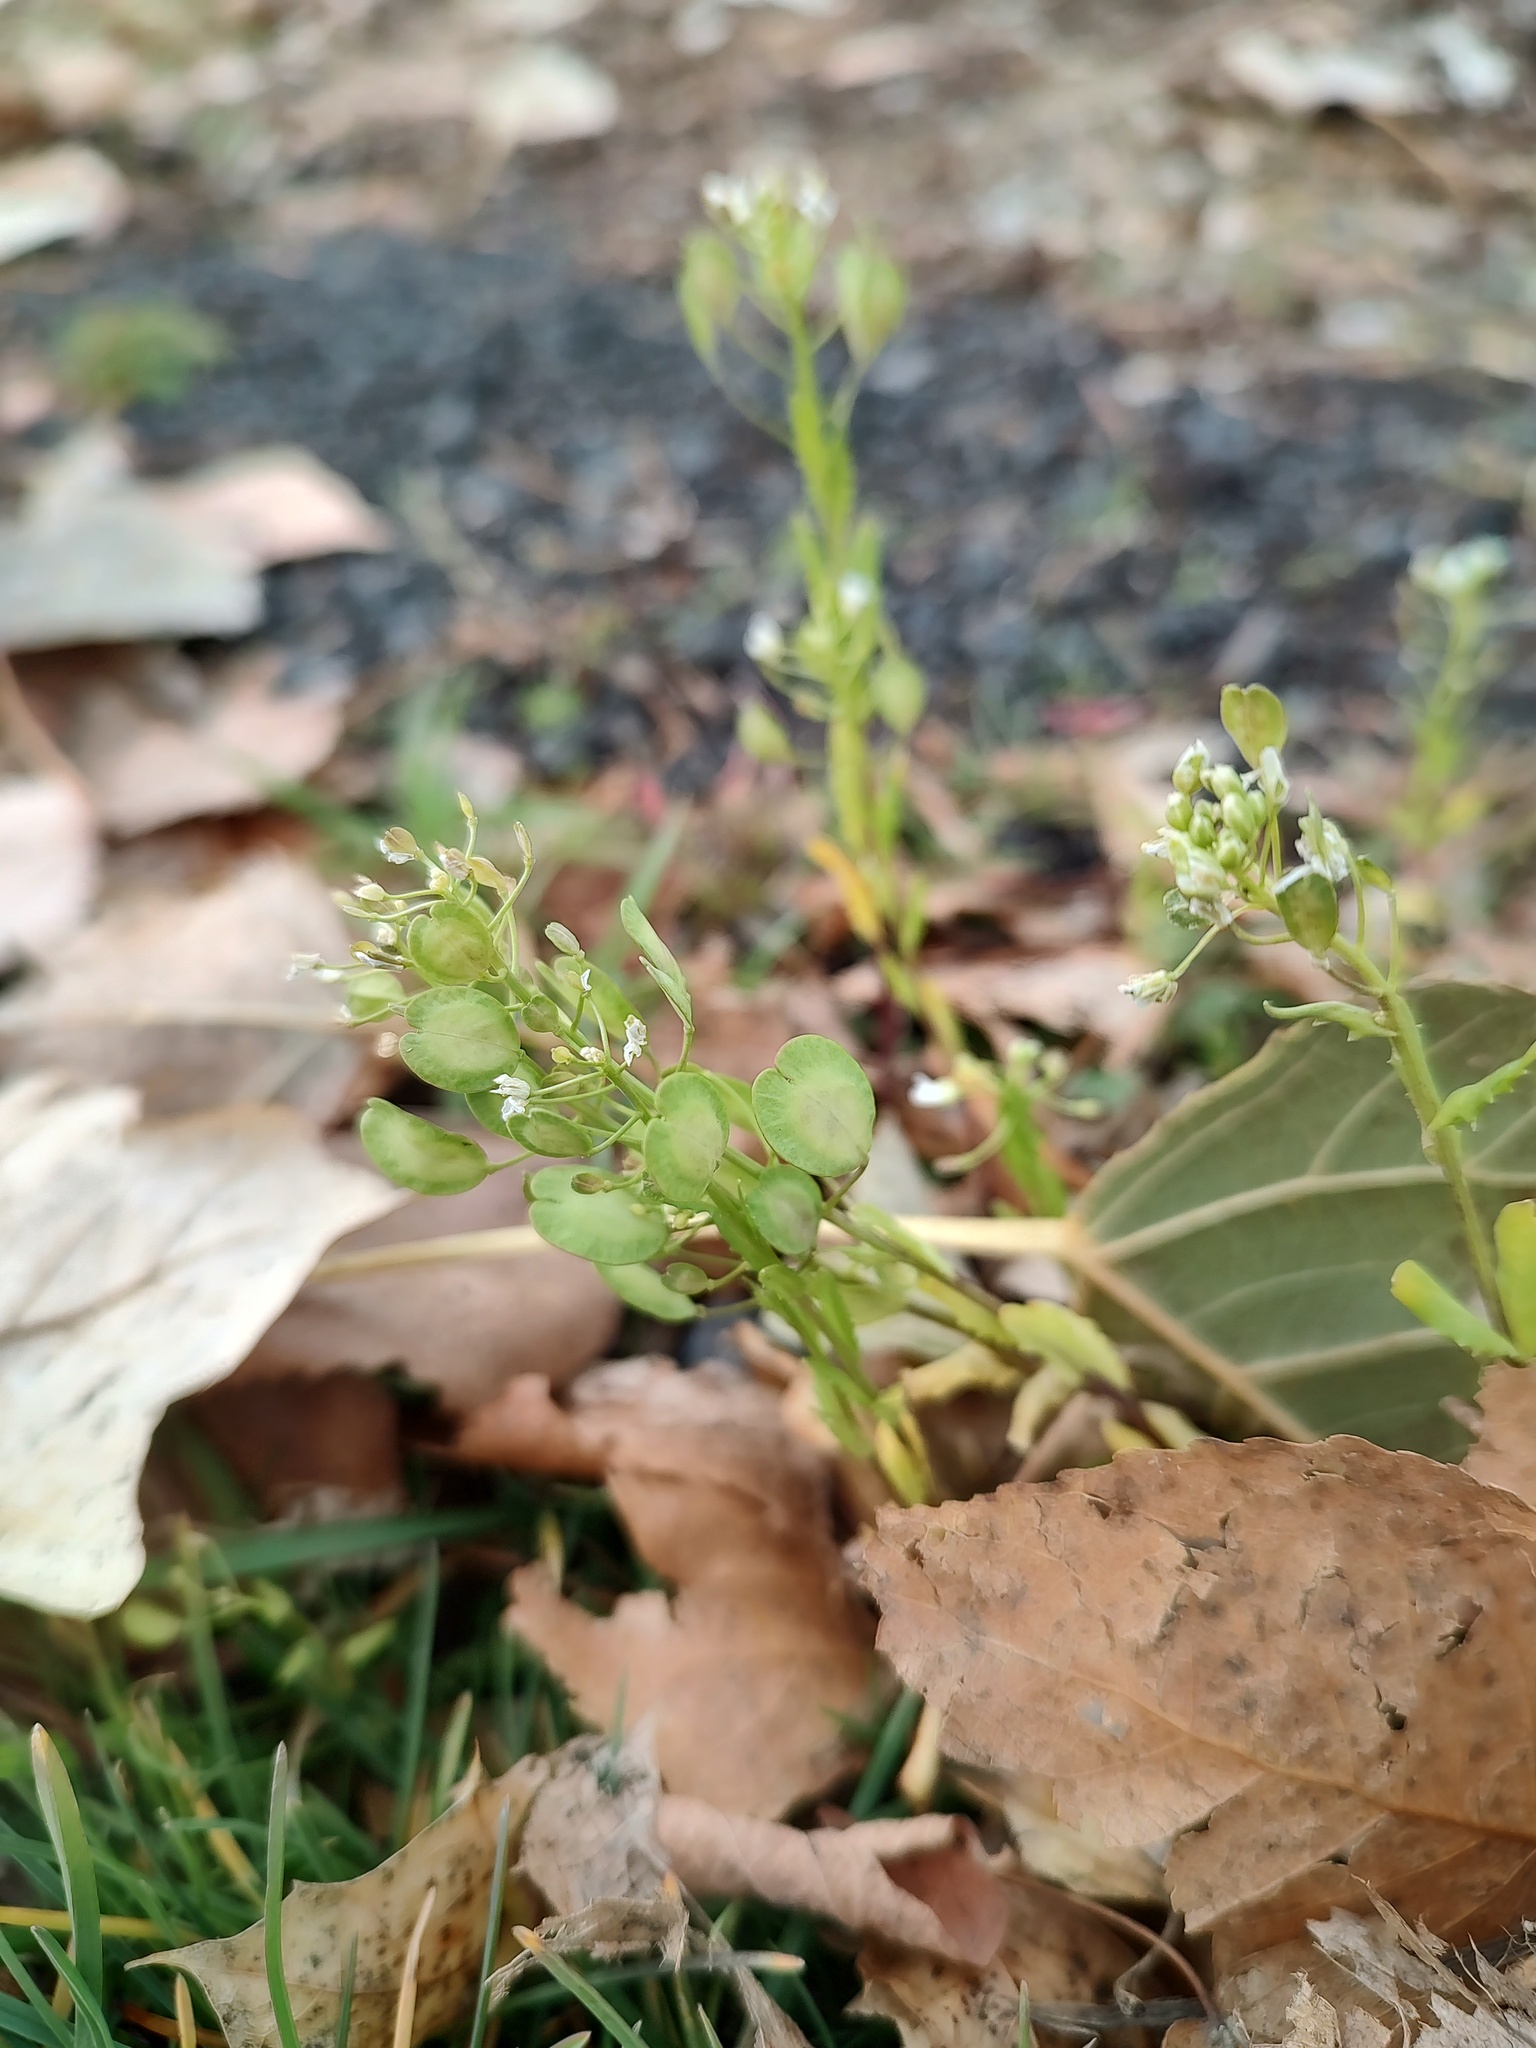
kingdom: Plantae
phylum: Tracheophyta
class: Magnoliopsida
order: Brassicales
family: Brassicaceae
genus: Thlaspi
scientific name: Thlaspi arvense
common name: Field pennycress
